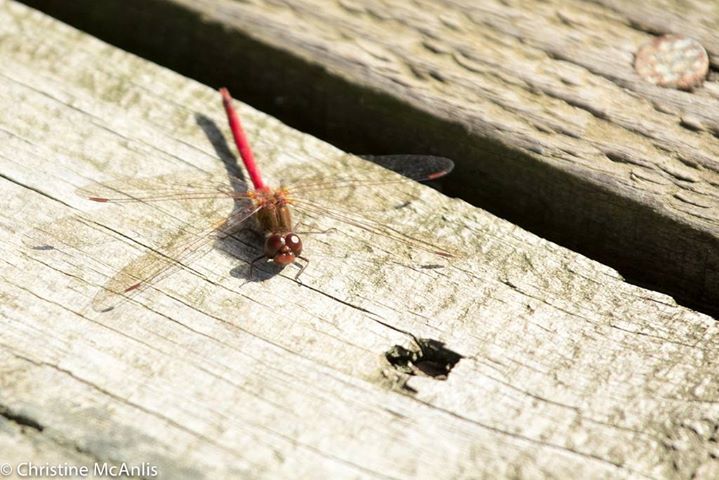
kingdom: Animalia
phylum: Arthropoda
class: Insecta
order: Odonata
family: Libellulidae
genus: Sympetrum
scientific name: Sympetrum vicinum
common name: Autumn meadowhawk
